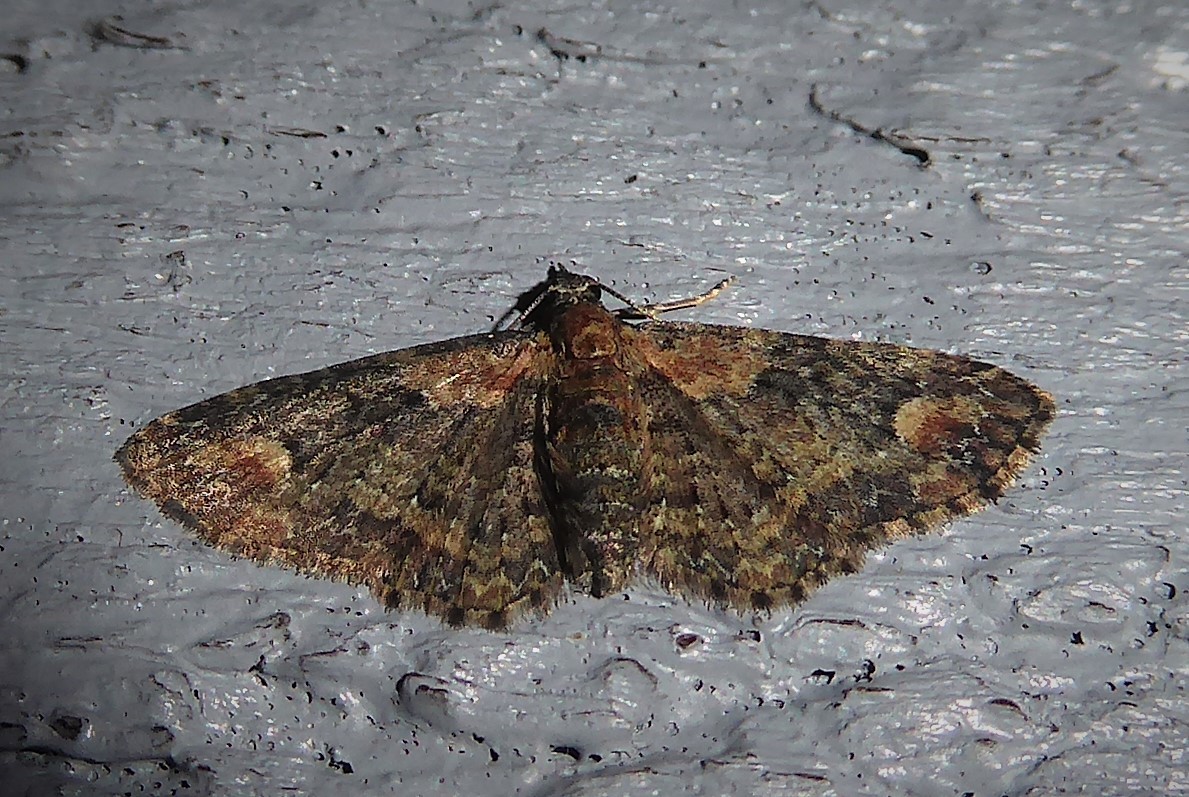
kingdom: Animalia
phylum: Arthropoda
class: Insecta
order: Lepidoptera
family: Geometridae
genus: Pasiphilodes
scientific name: Pasiphilodes testulata
